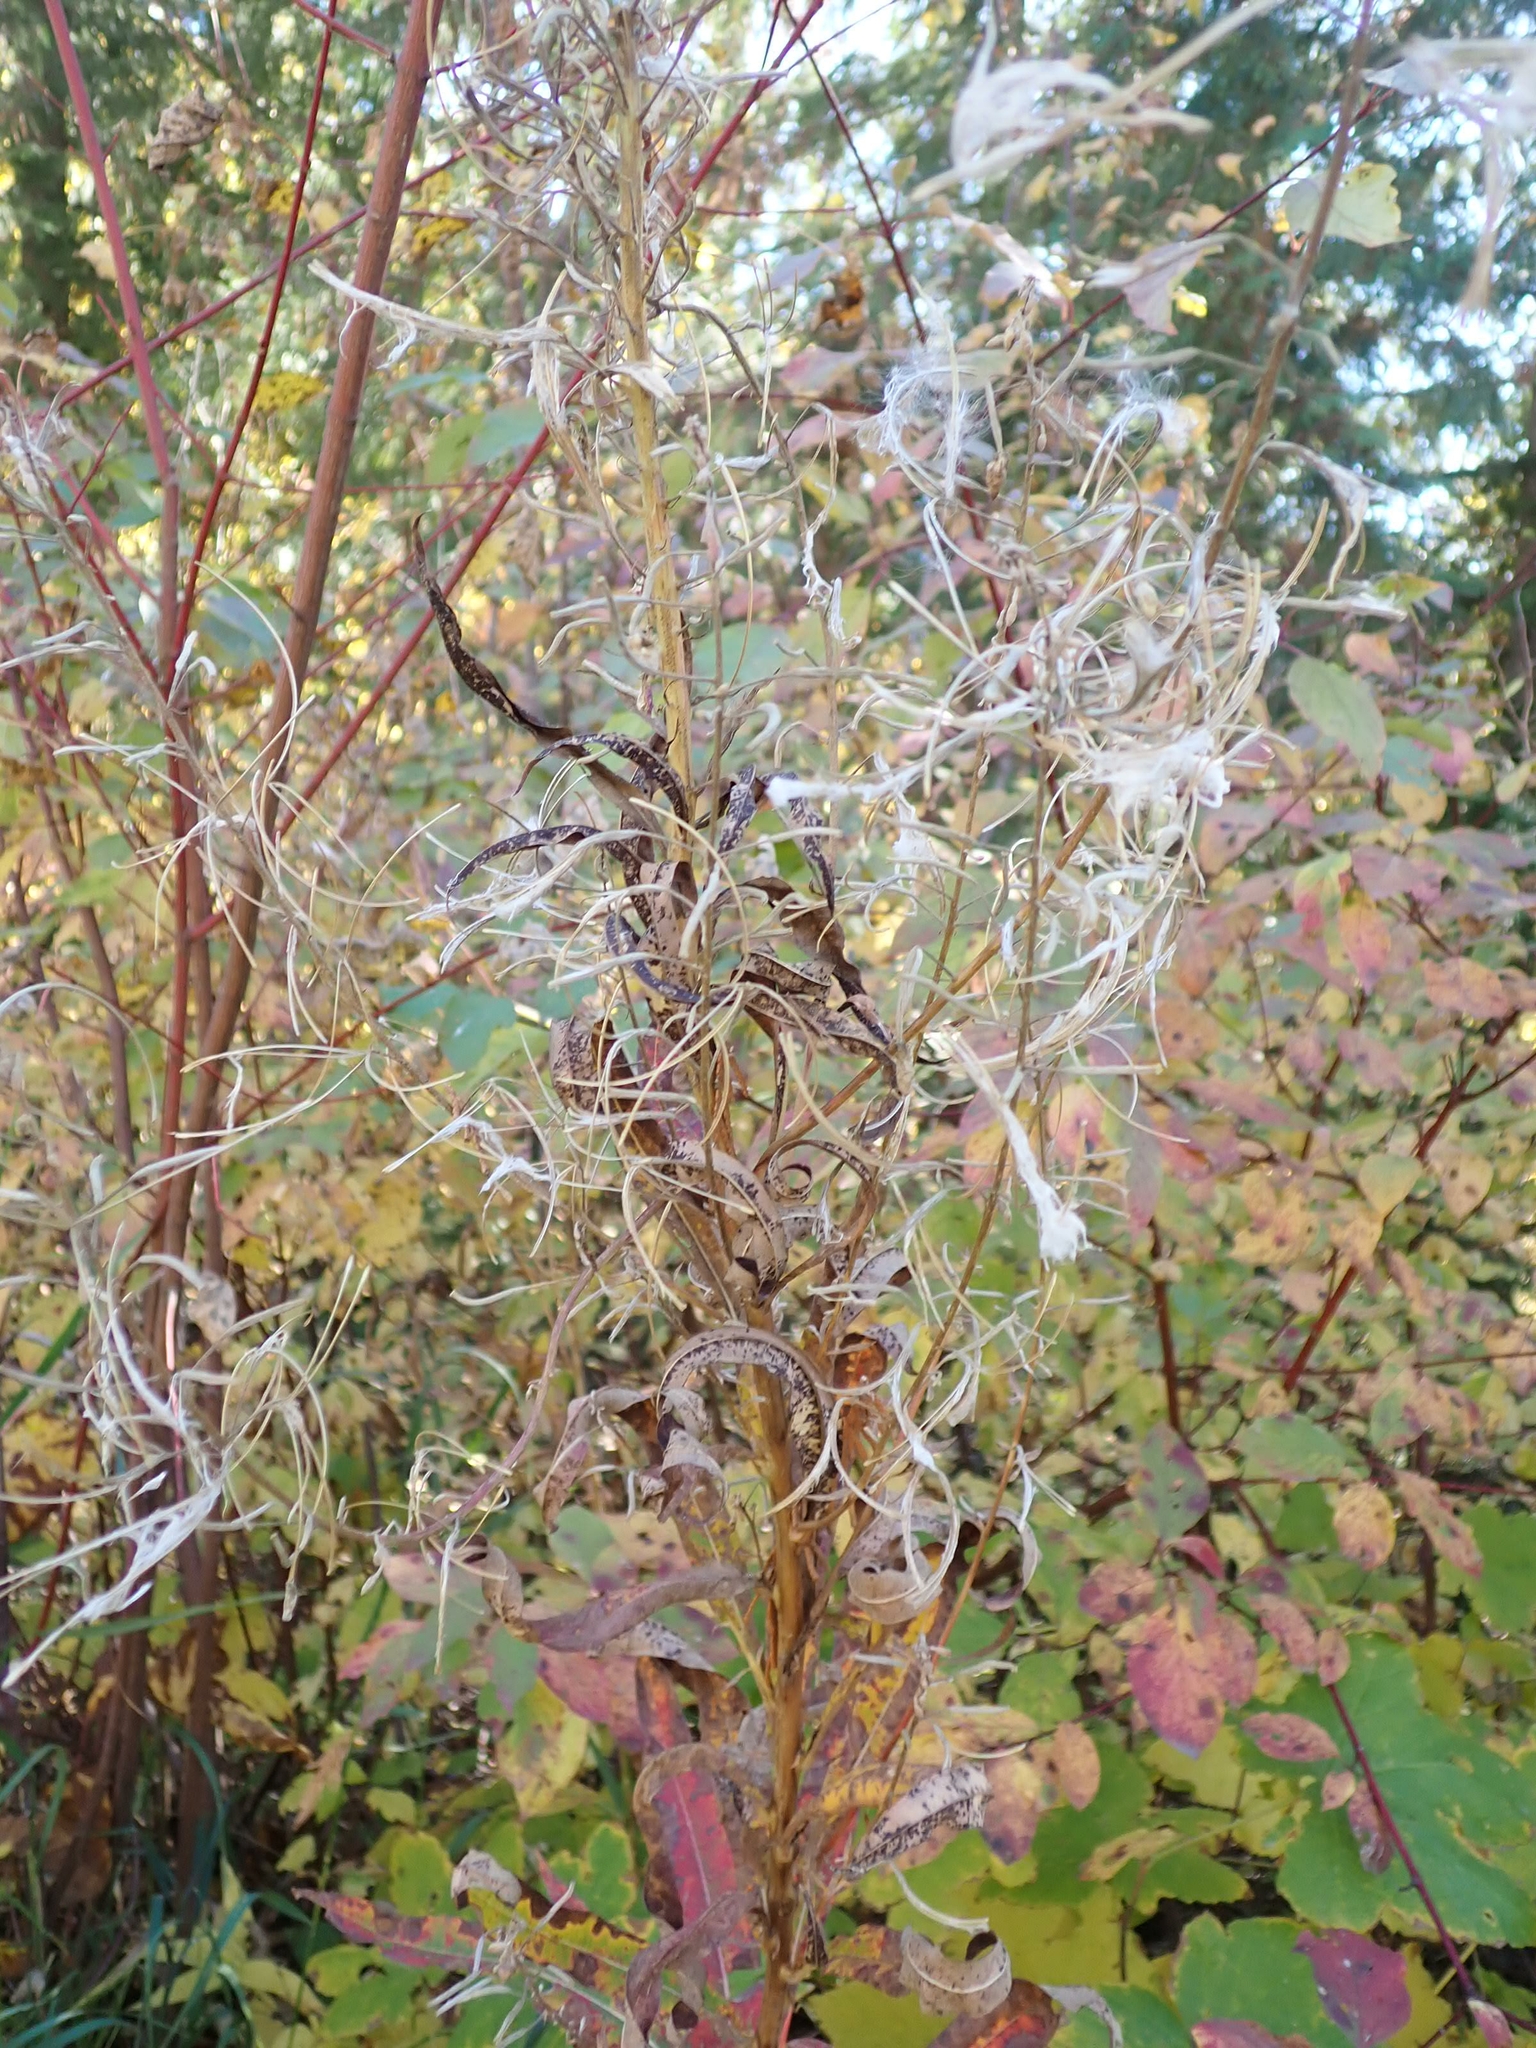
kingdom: Plantae
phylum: Tracheophyta
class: Magnoliopsida
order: Myrtales
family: Onagraceae
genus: Chamaenerion
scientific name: Chamaenerion angustifolium
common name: Fireweed
